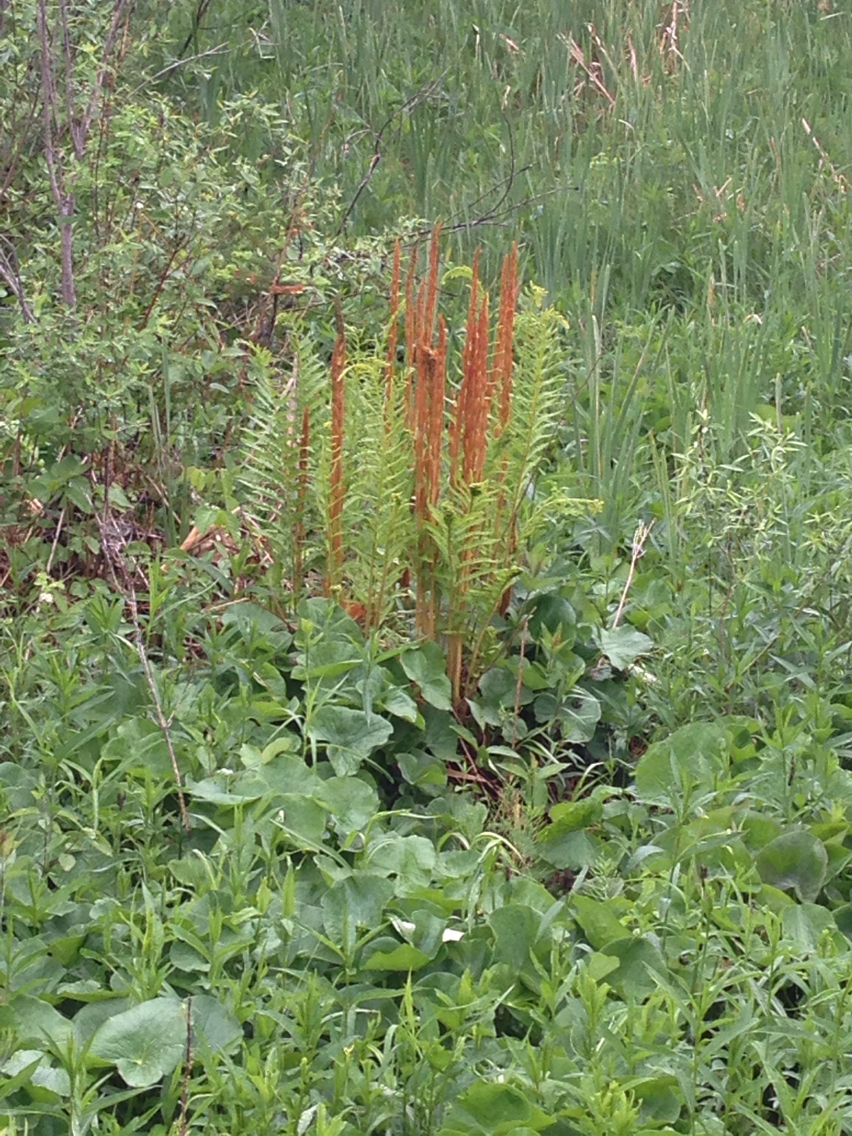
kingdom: Plantae
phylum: Tracheophyta
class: Polypodiopsida
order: Osmundales
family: Osmundaceae
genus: Osmundastrum
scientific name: Osmundastrum cinnamomeum
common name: Cinnamon fern
